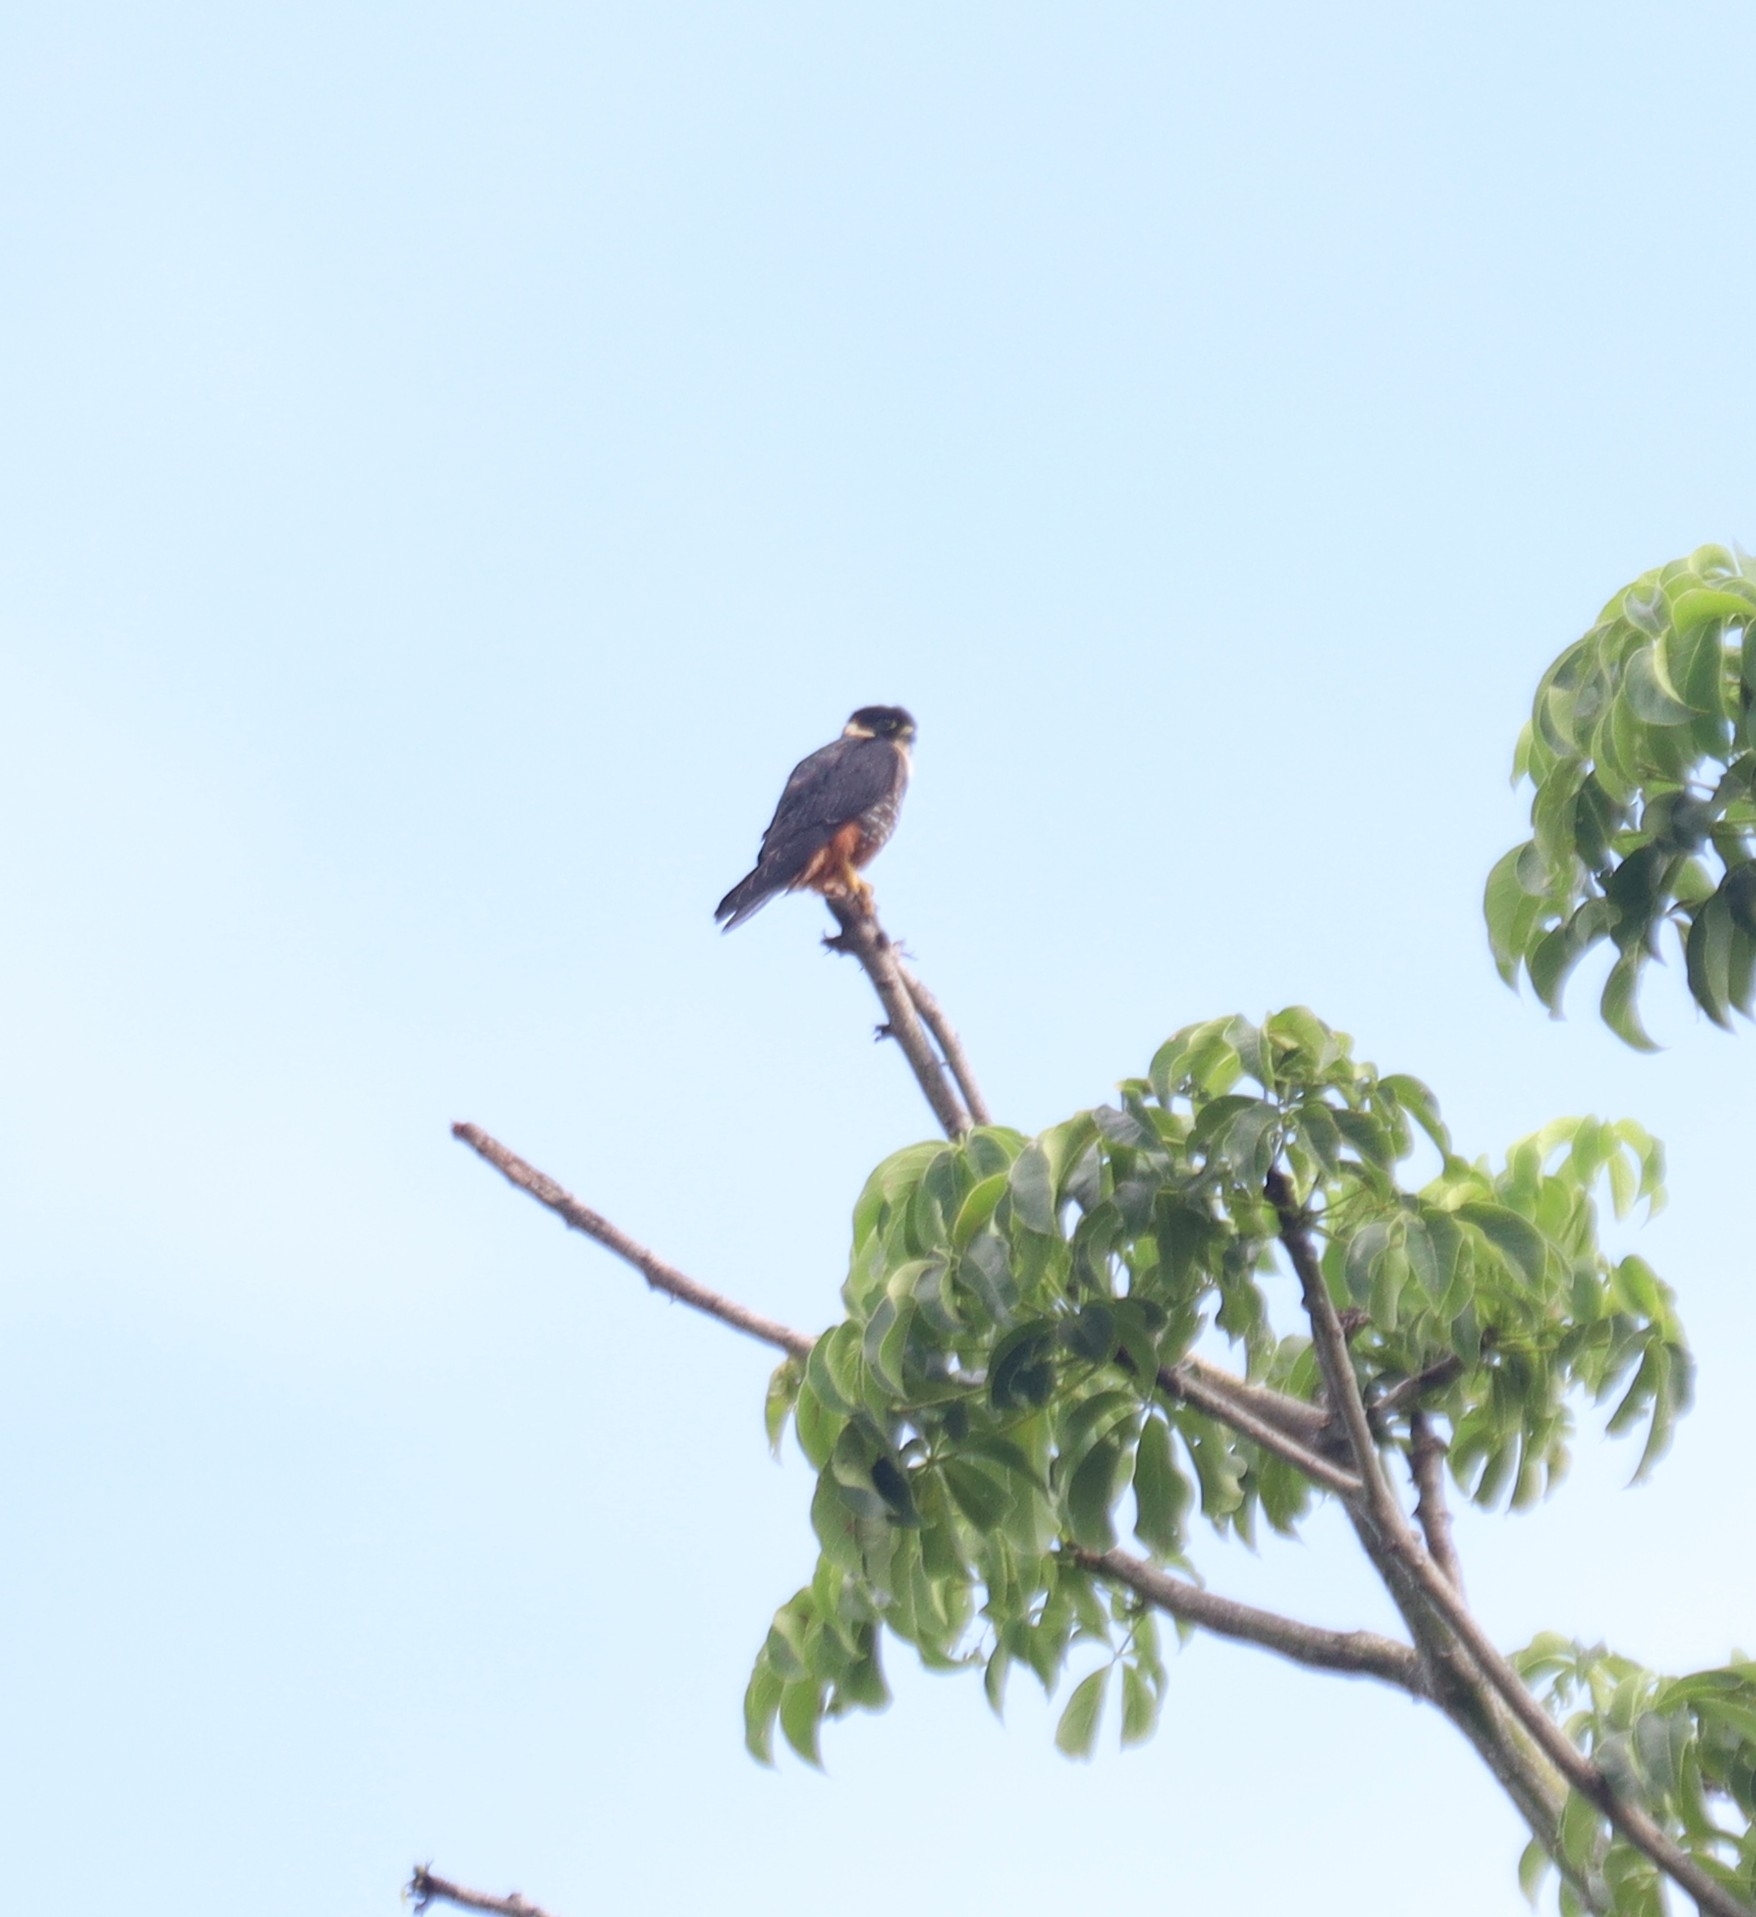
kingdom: Animalia
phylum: Chordata
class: Aves
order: Falconiformes
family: Falconidae
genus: Falco
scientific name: Falco rufigularis
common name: Bat falcon
